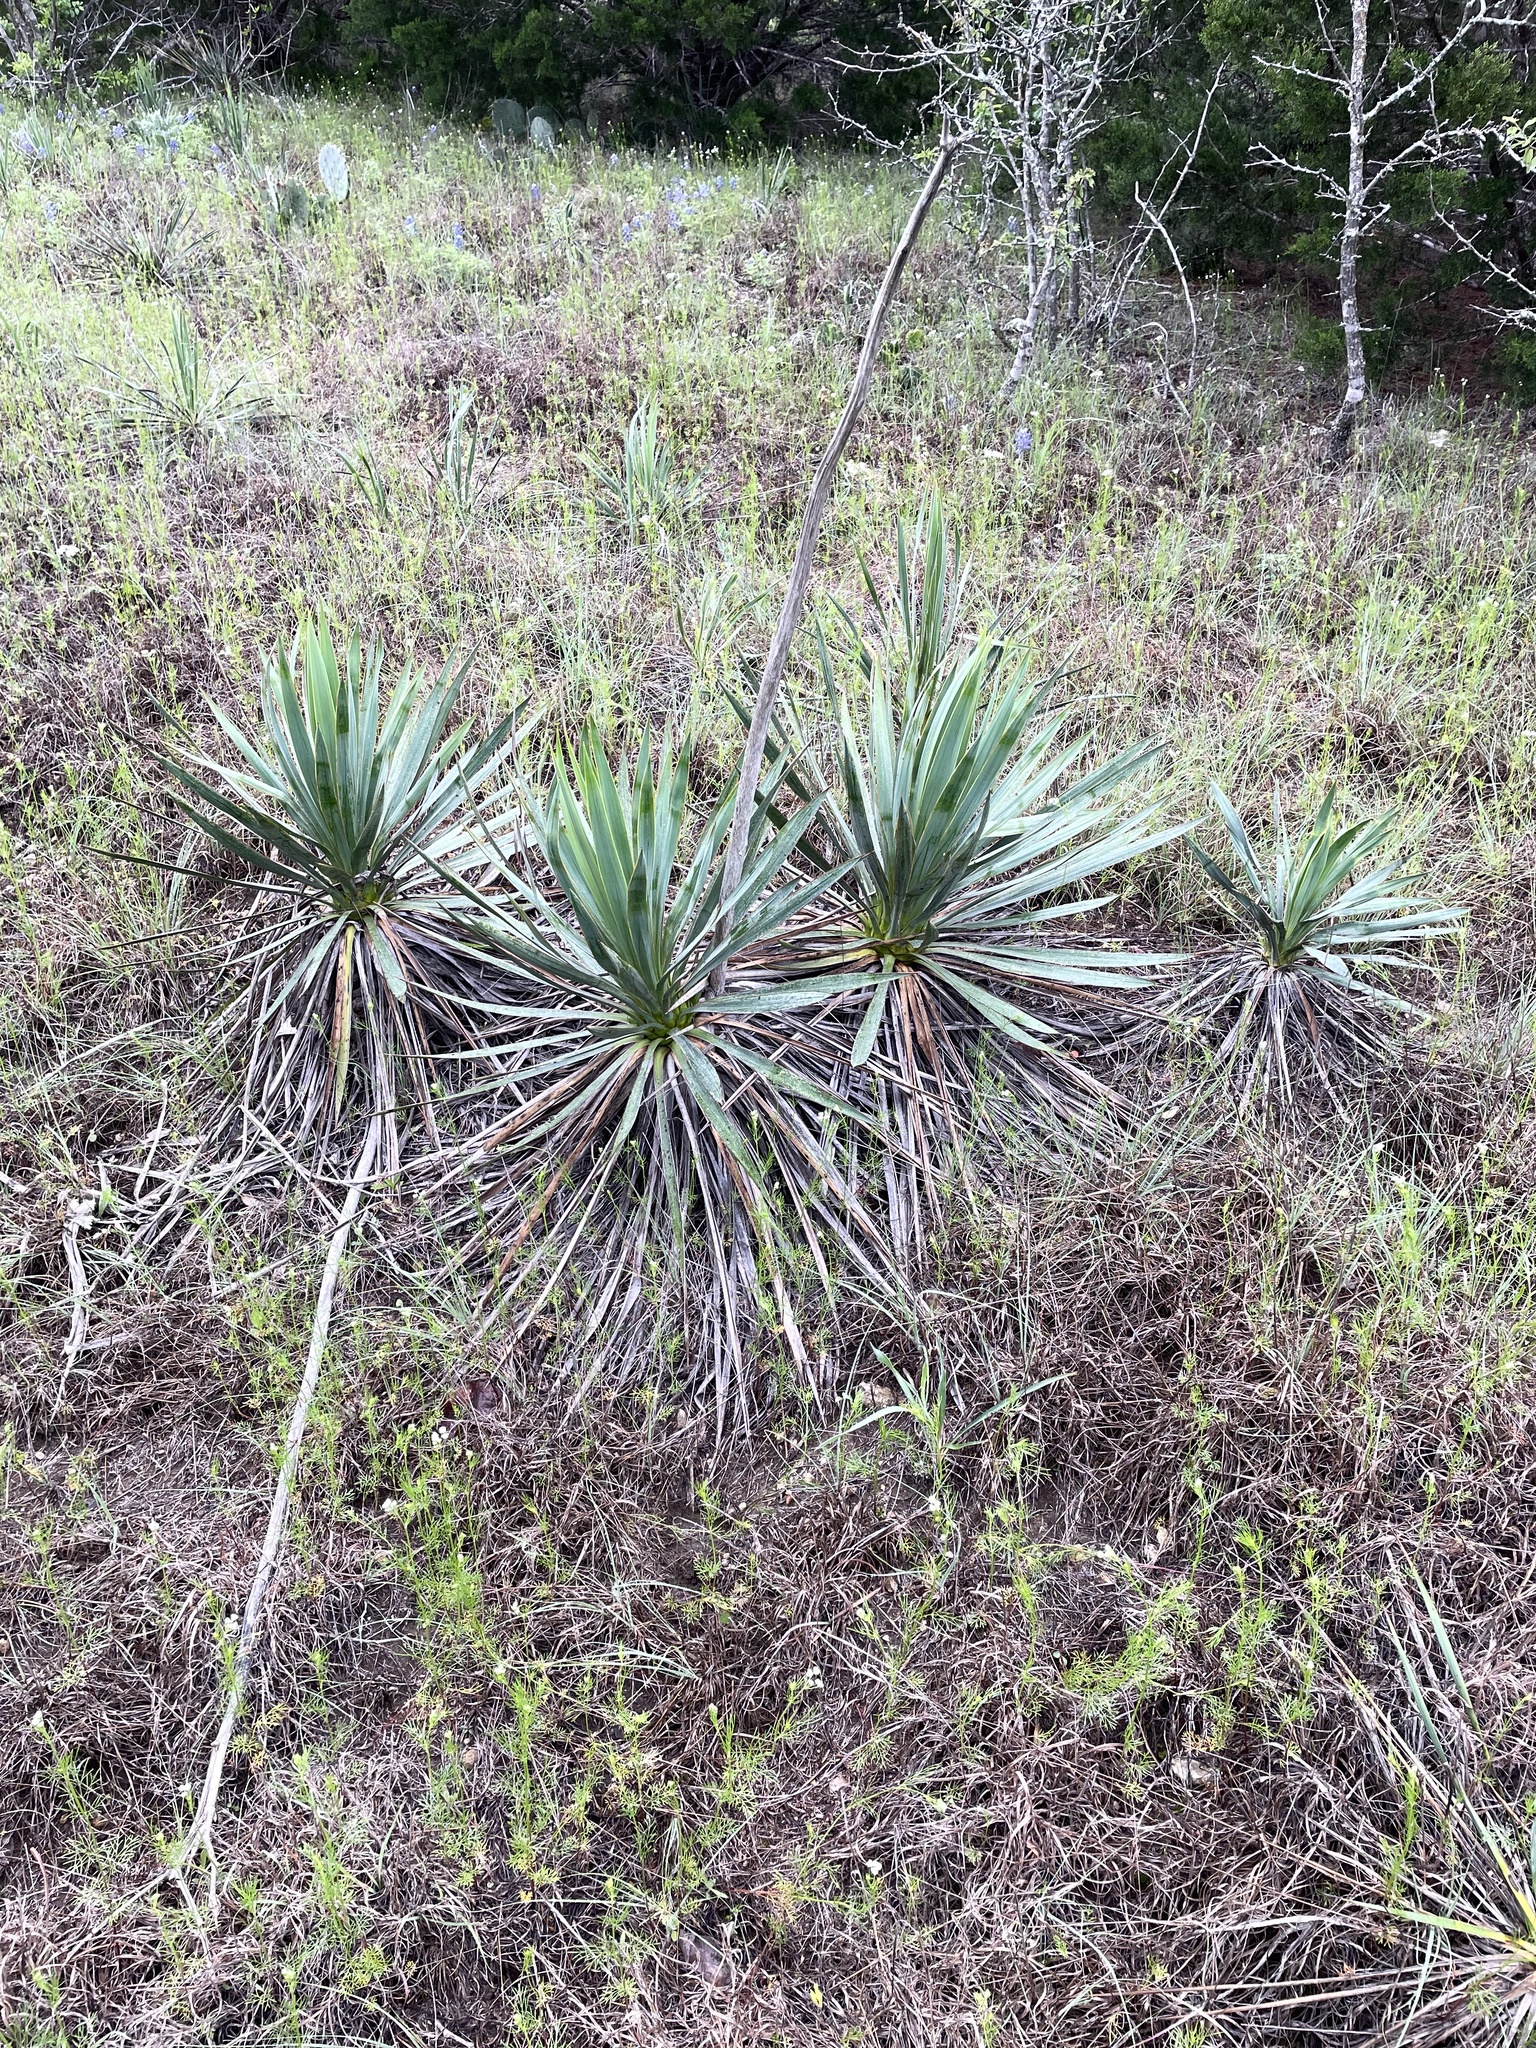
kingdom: Plantae
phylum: Tracheophyta
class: Liliopsida
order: Asparagales
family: Asparagaceae
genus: Yucca
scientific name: Yucca pallida
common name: Pale leaf yucca
